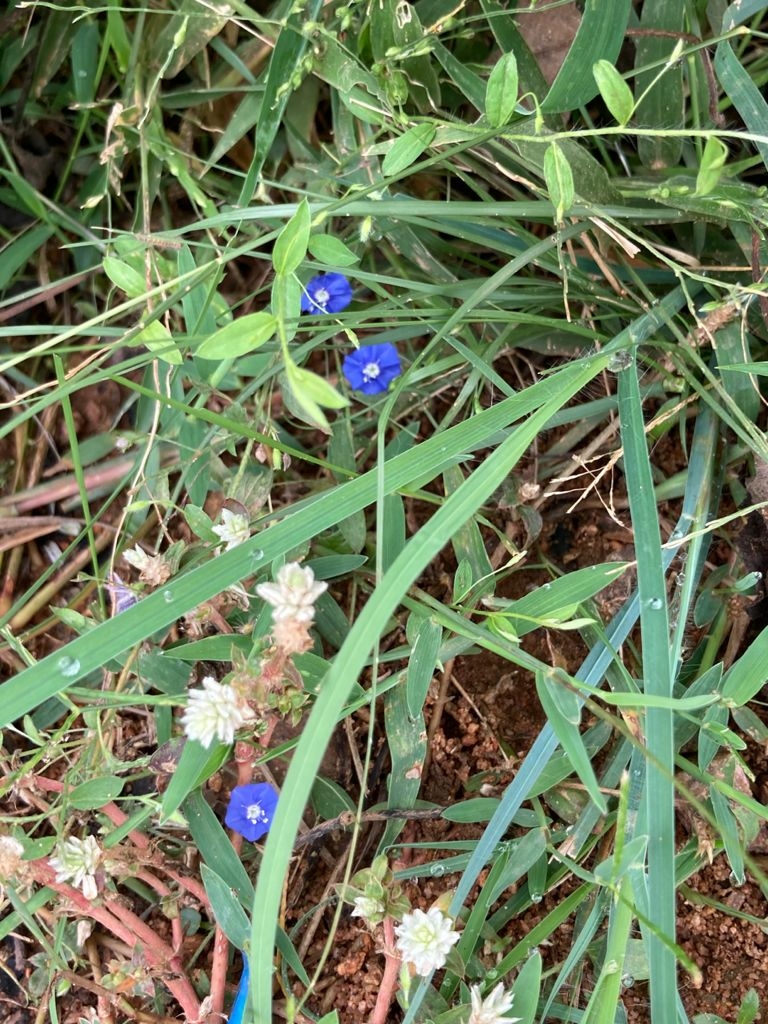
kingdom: Plantae
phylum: Tracheophyta
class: Magnoliopsida
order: Solanales
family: Convolvulaceae
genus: Evolvulus
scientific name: Evolvulus alsinoides
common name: Slender dwarf morning-glory
